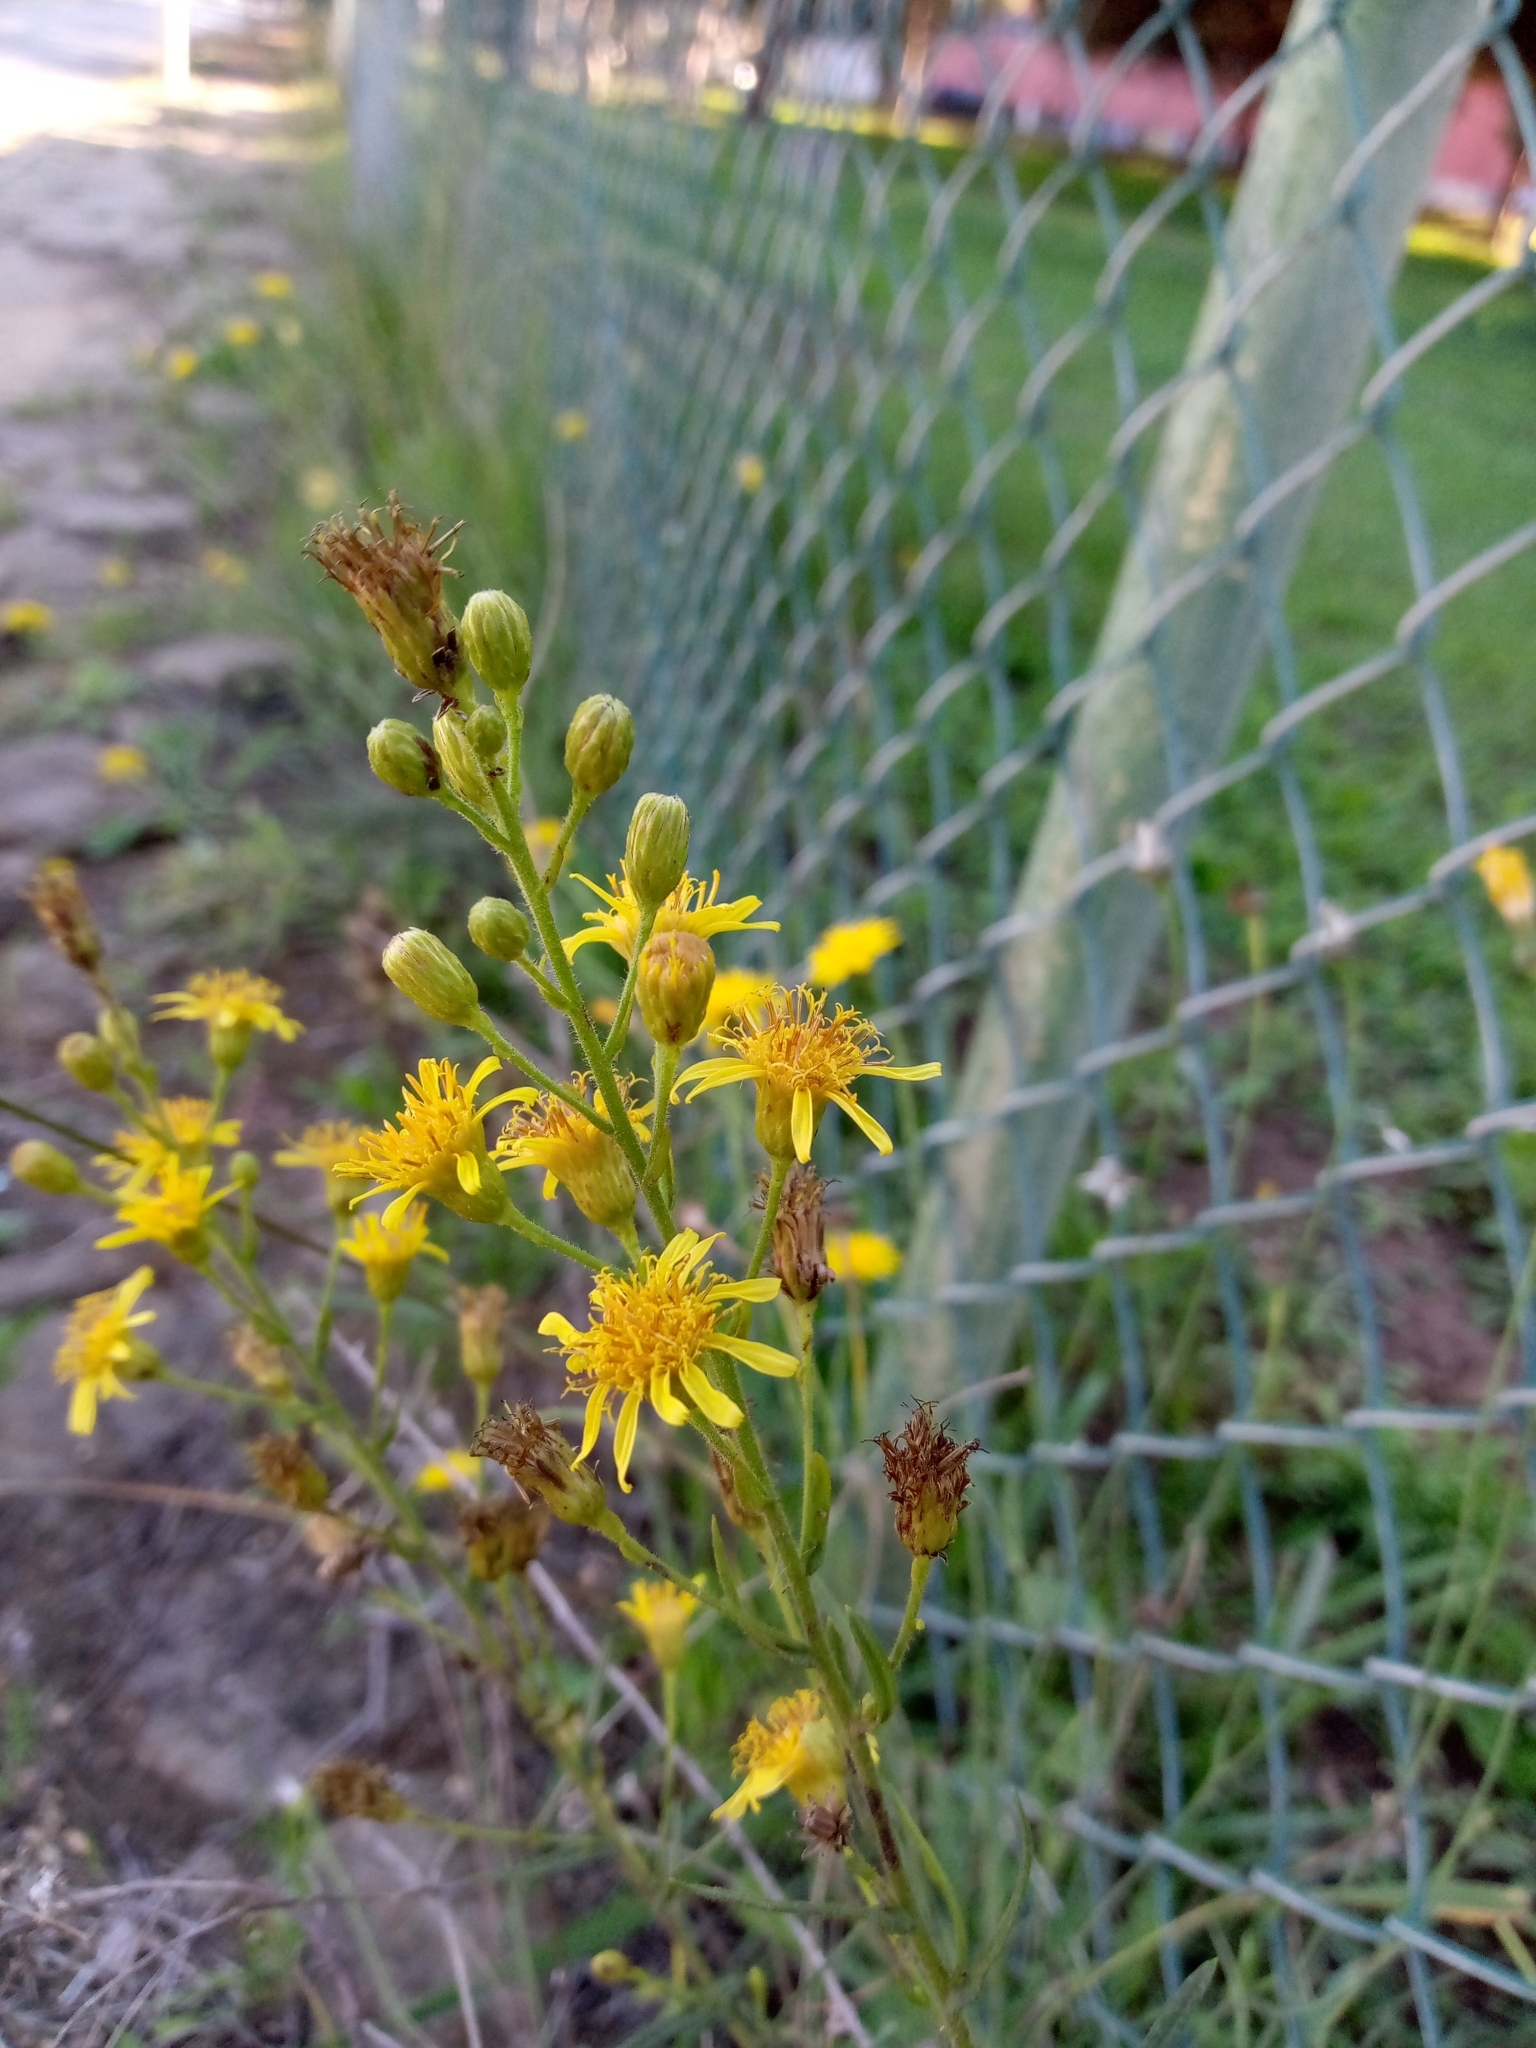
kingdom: Plantae
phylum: Tracheophyta
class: Magnoliopsida
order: Asterales
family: Asteraceae
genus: Dittrichia
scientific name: Dittrichia viscosa
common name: Woody fleabane
